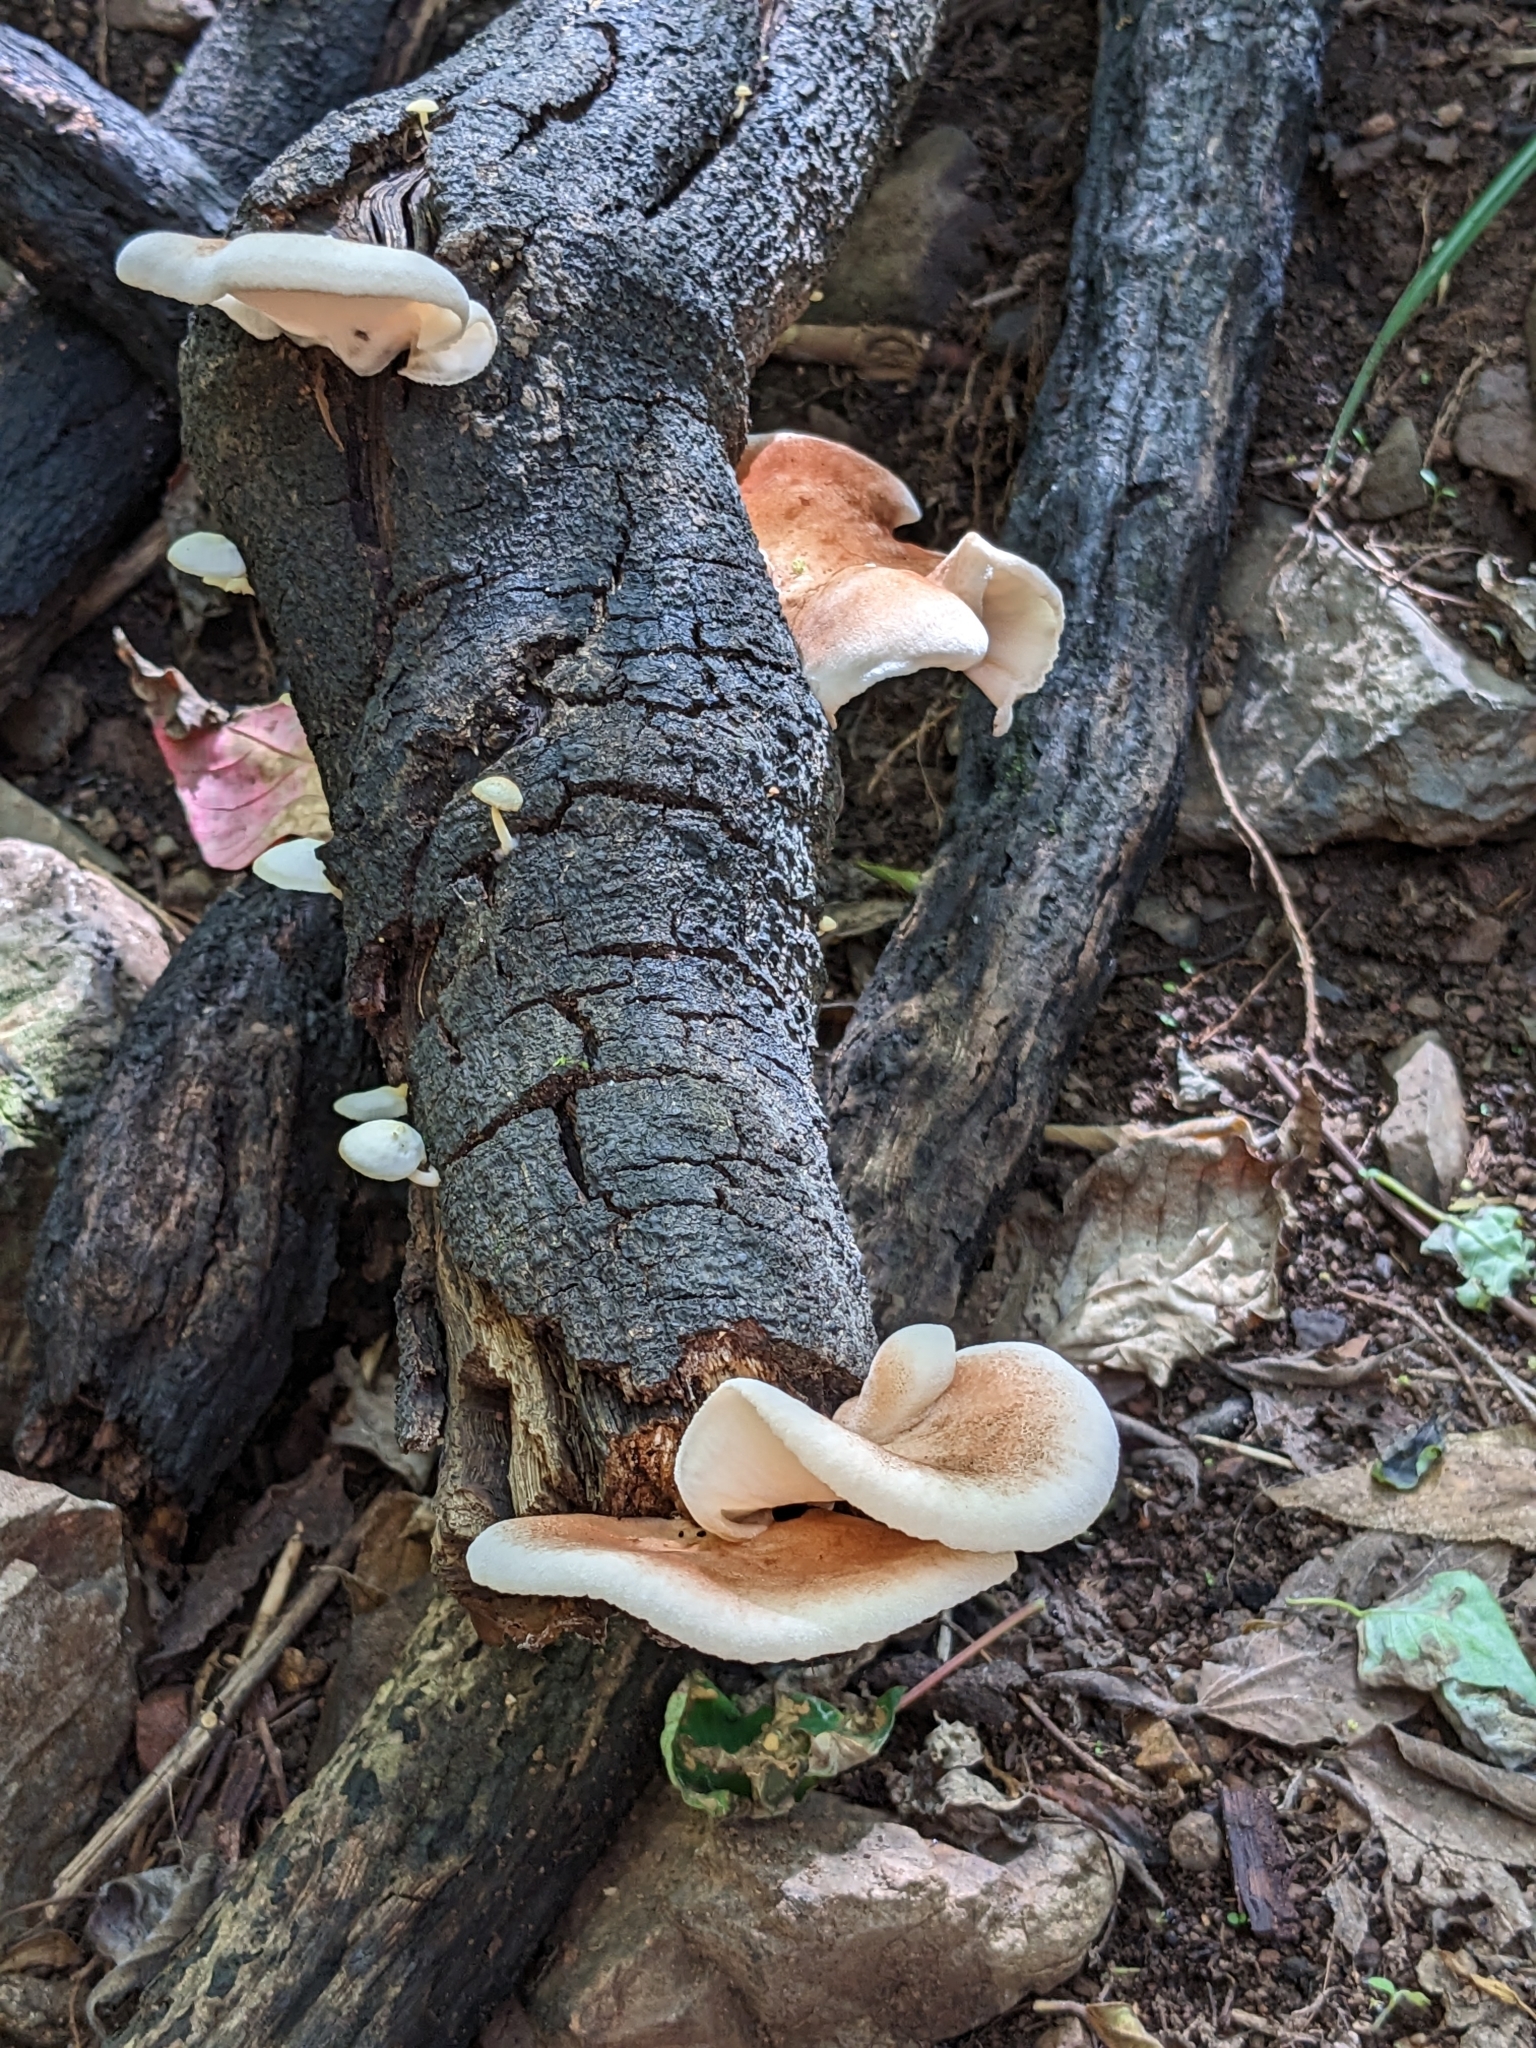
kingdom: Fungi
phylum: Basidiomycota
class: Agaricomycetes
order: Agaricales
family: Omphalotaceae
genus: Omphalotus
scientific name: Omphalotus nidiformis
